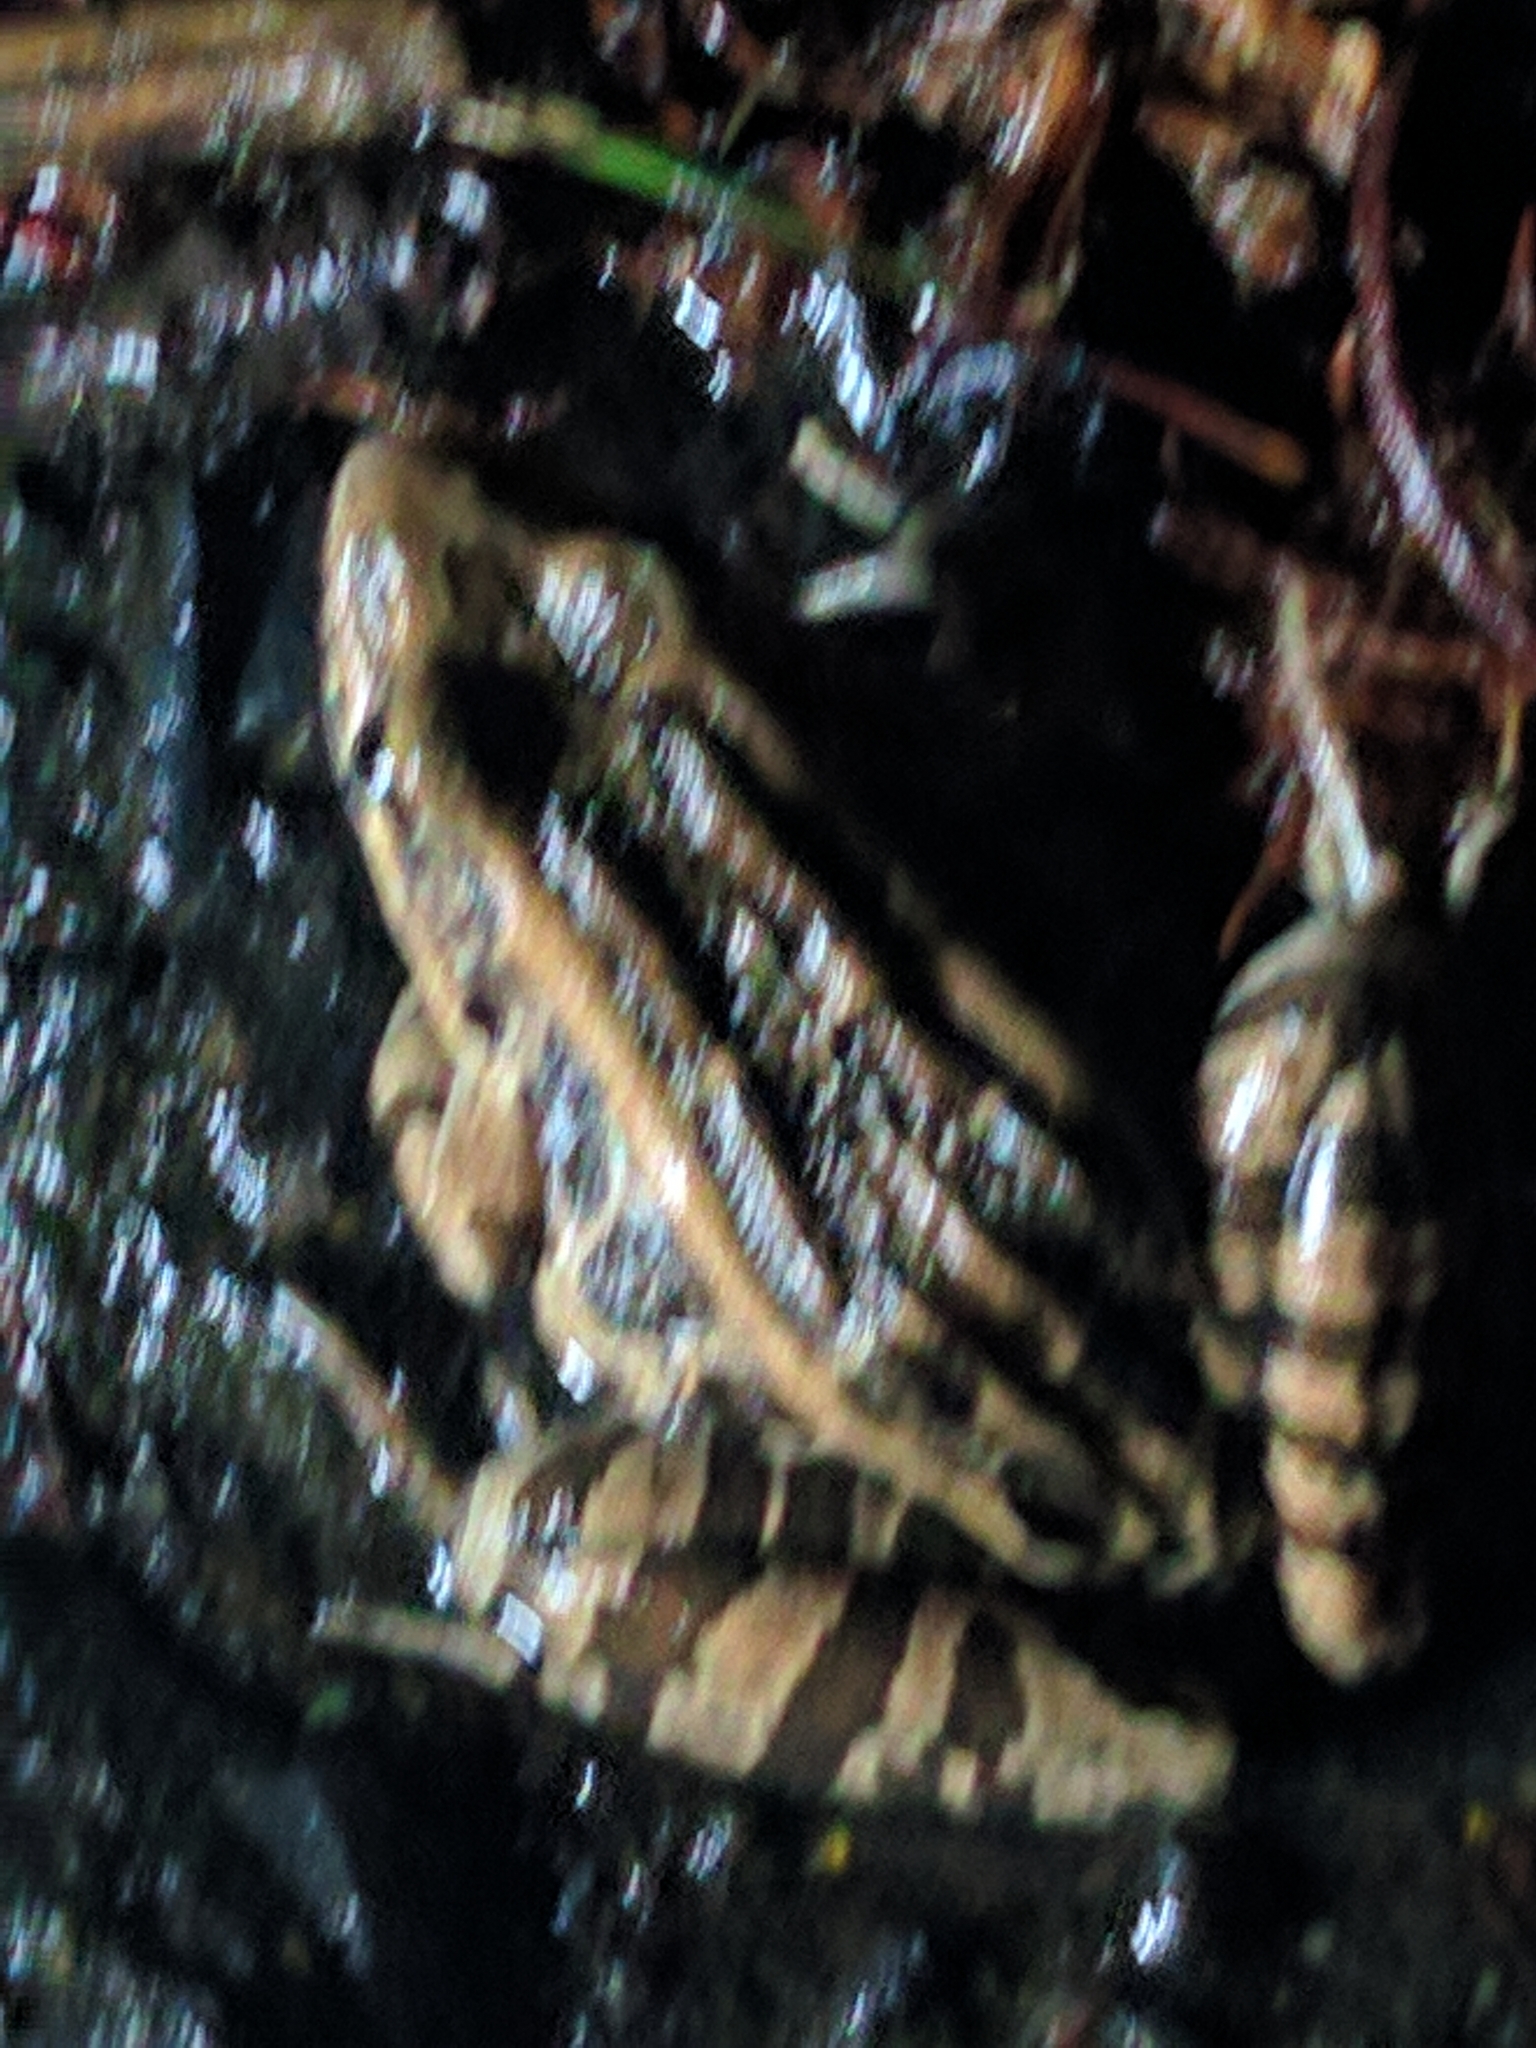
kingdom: Animalia
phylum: Chordata
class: Amphibia
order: Anura
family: Ranidae
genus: Lithobates
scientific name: Lithobates palustris
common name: Pickerel frog
